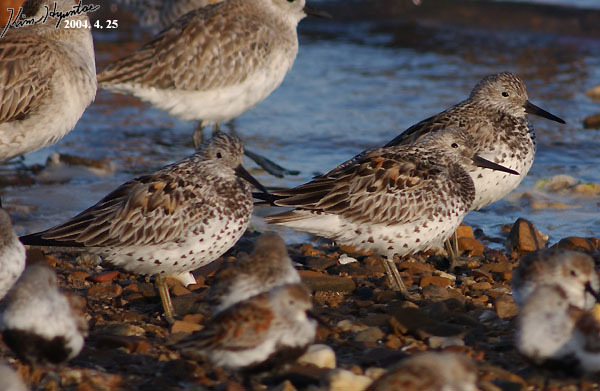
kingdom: Animalia
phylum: Chordata
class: Aves
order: Charadriiformes
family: Scolopacidae
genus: Calidris
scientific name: Calidris tenuirostris
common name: Great knot
